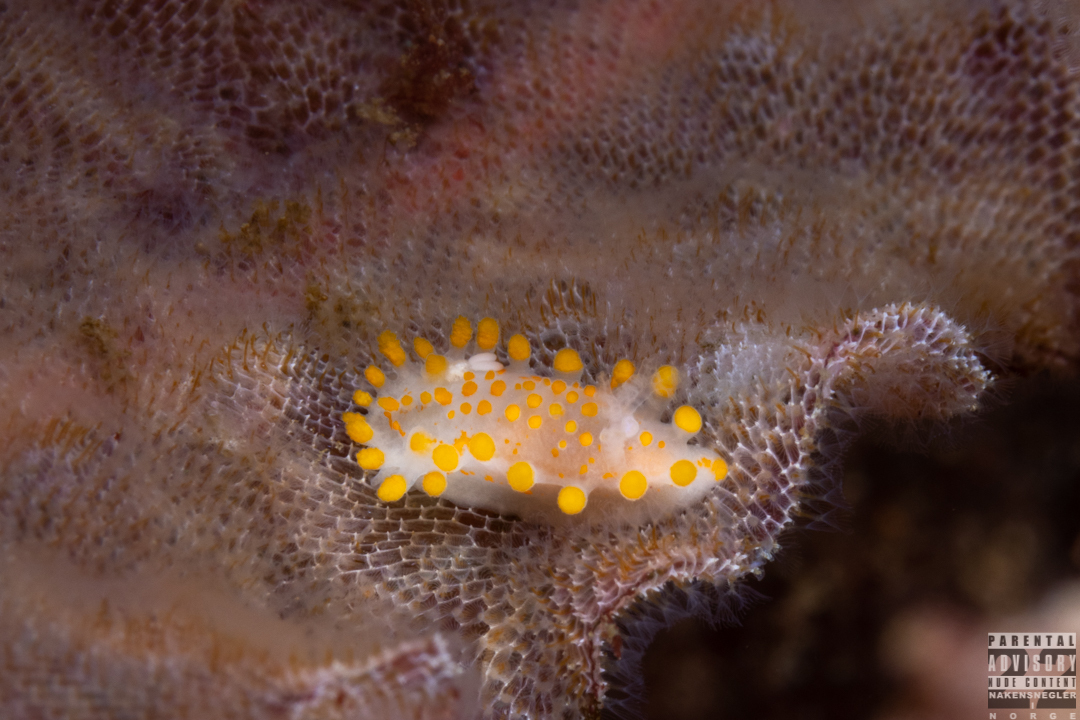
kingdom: Animalia
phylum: Mollusca
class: Gastropoda
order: Nudibranchia
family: Polyceridae
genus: Limacia
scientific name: Limacia clavigera
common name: Orange-clubbed sea slug
